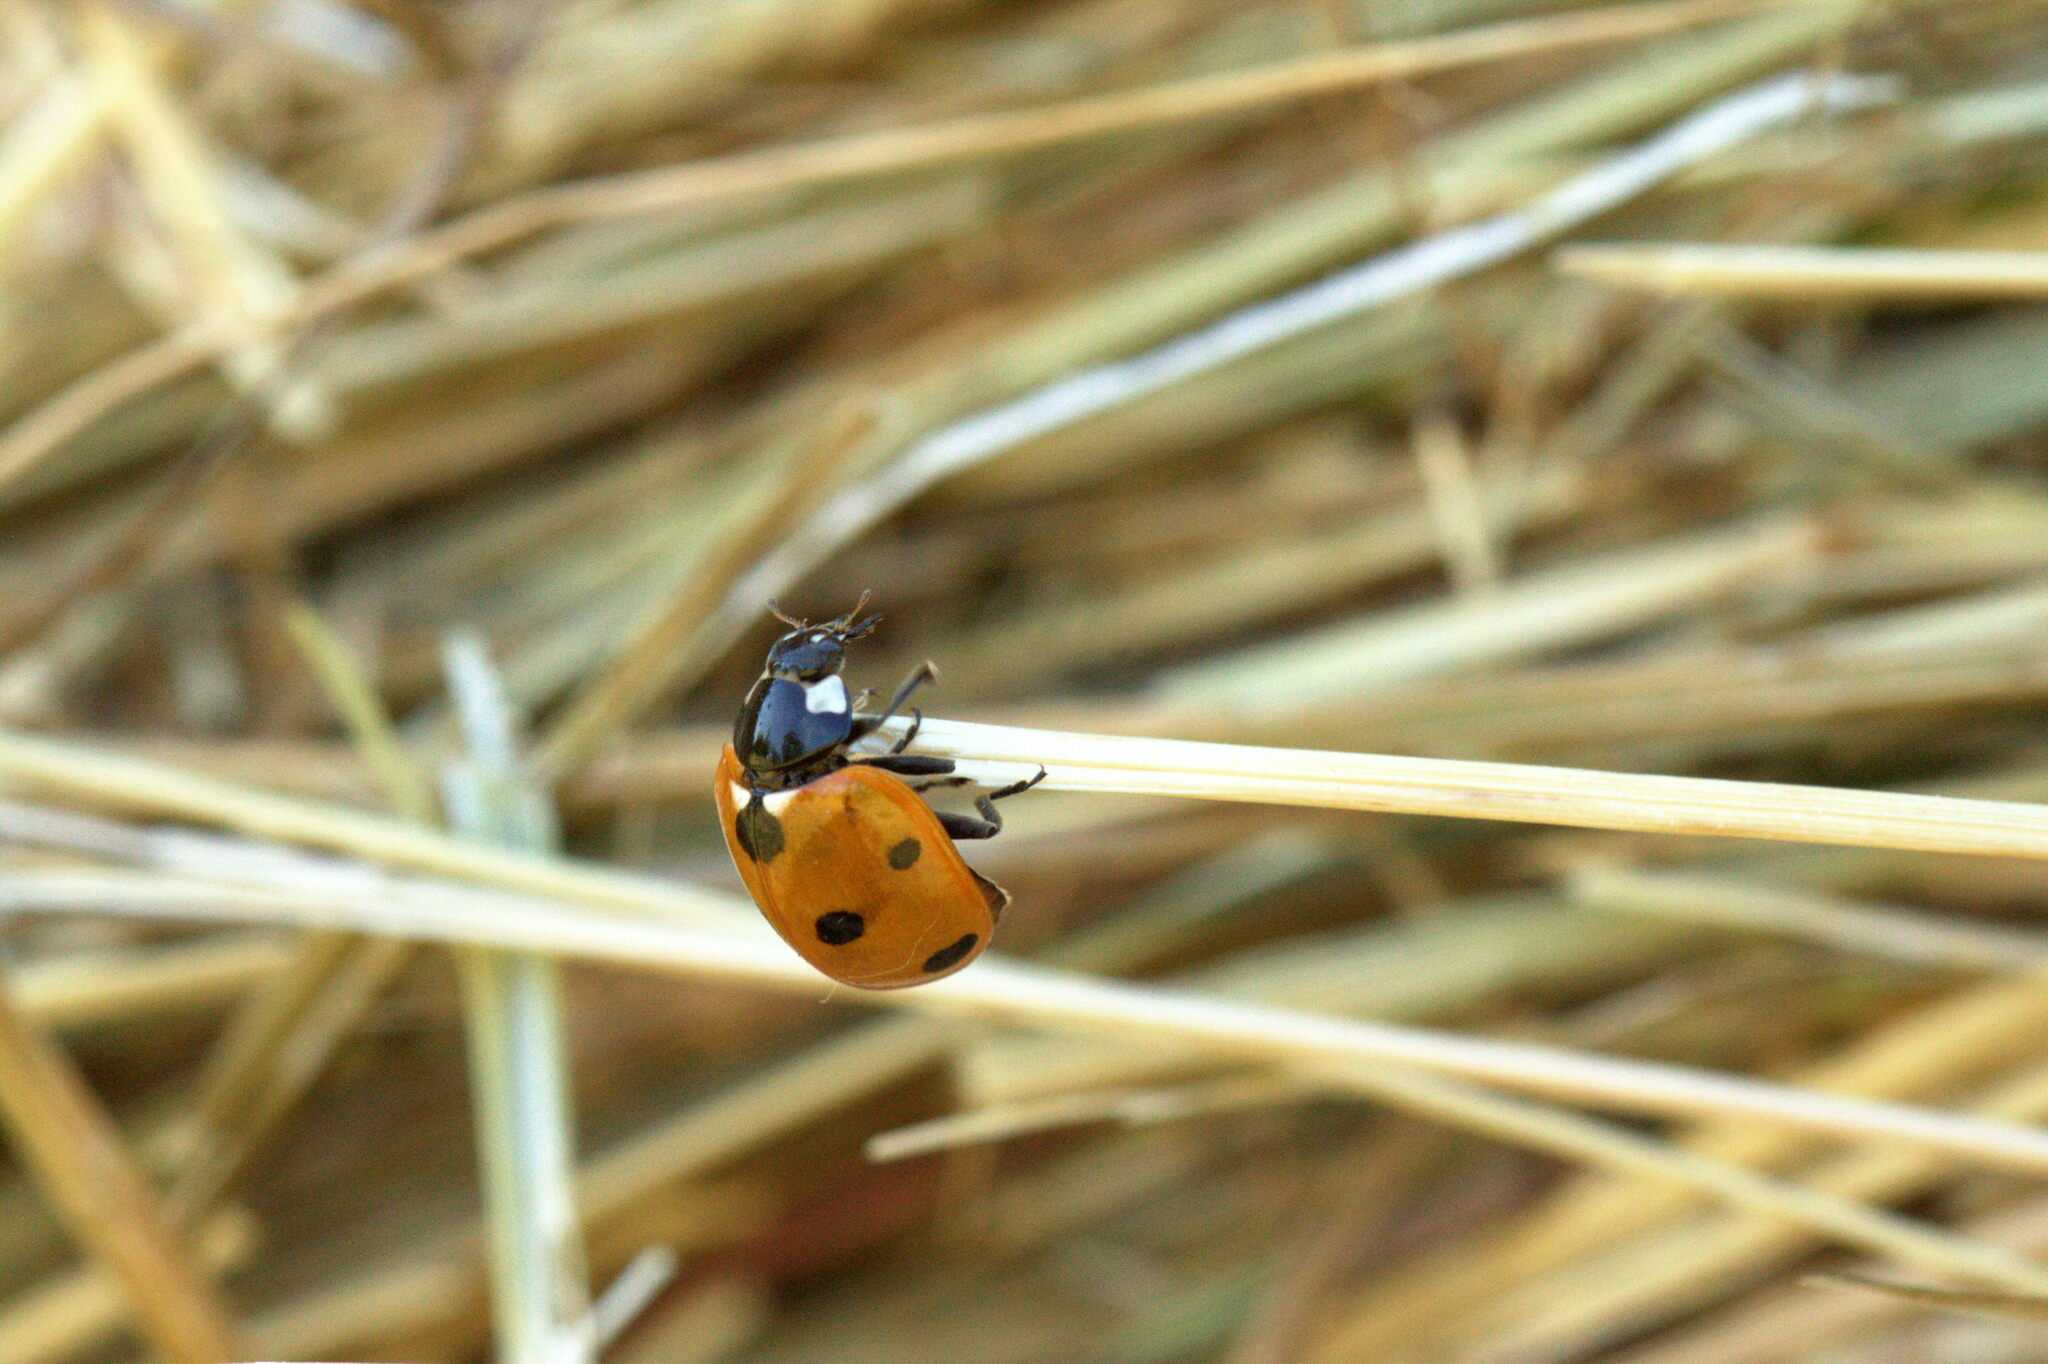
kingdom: Animalia
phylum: Arthropoda
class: Insecta
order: Coleoptera
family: Coccinellidae
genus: Coccinella
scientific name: Coccinella septempunctata
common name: Sevenspotted lady beetle
